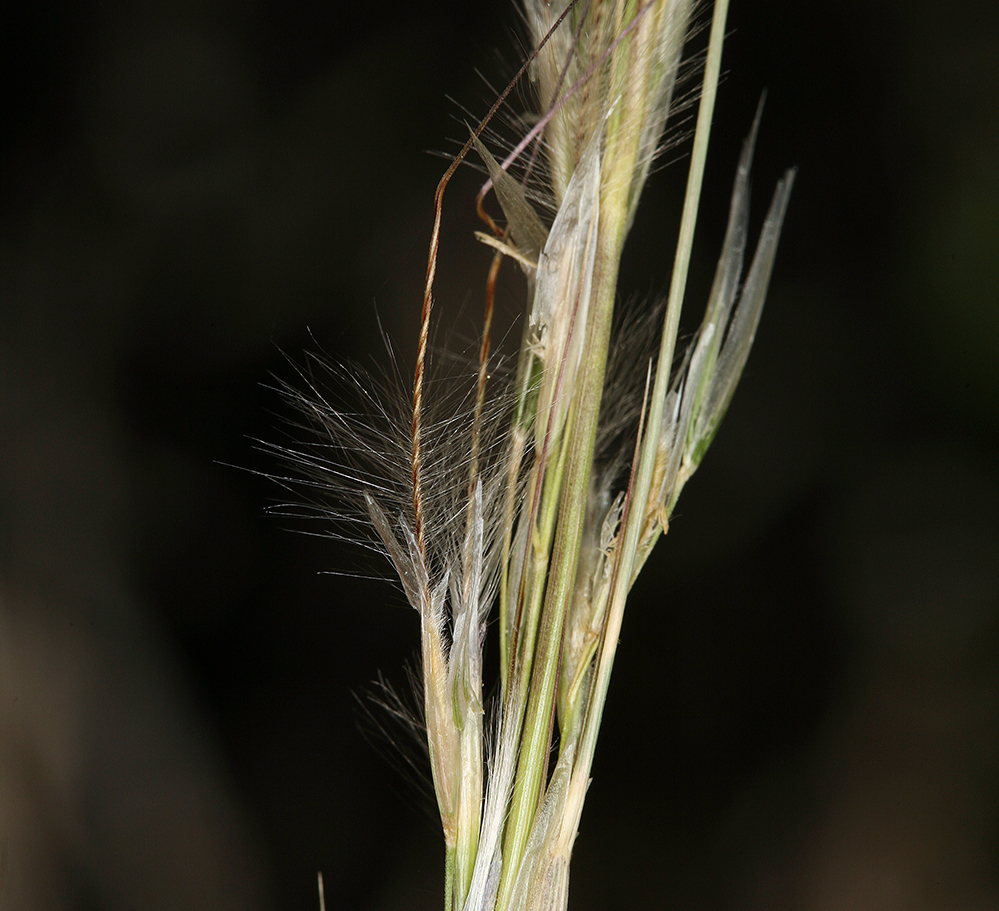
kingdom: Plantae
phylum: Tracheophyta
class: Liliopsida
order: Poales
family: Poaceae
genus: Pappostipa
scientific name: Pappostipa speciosa
